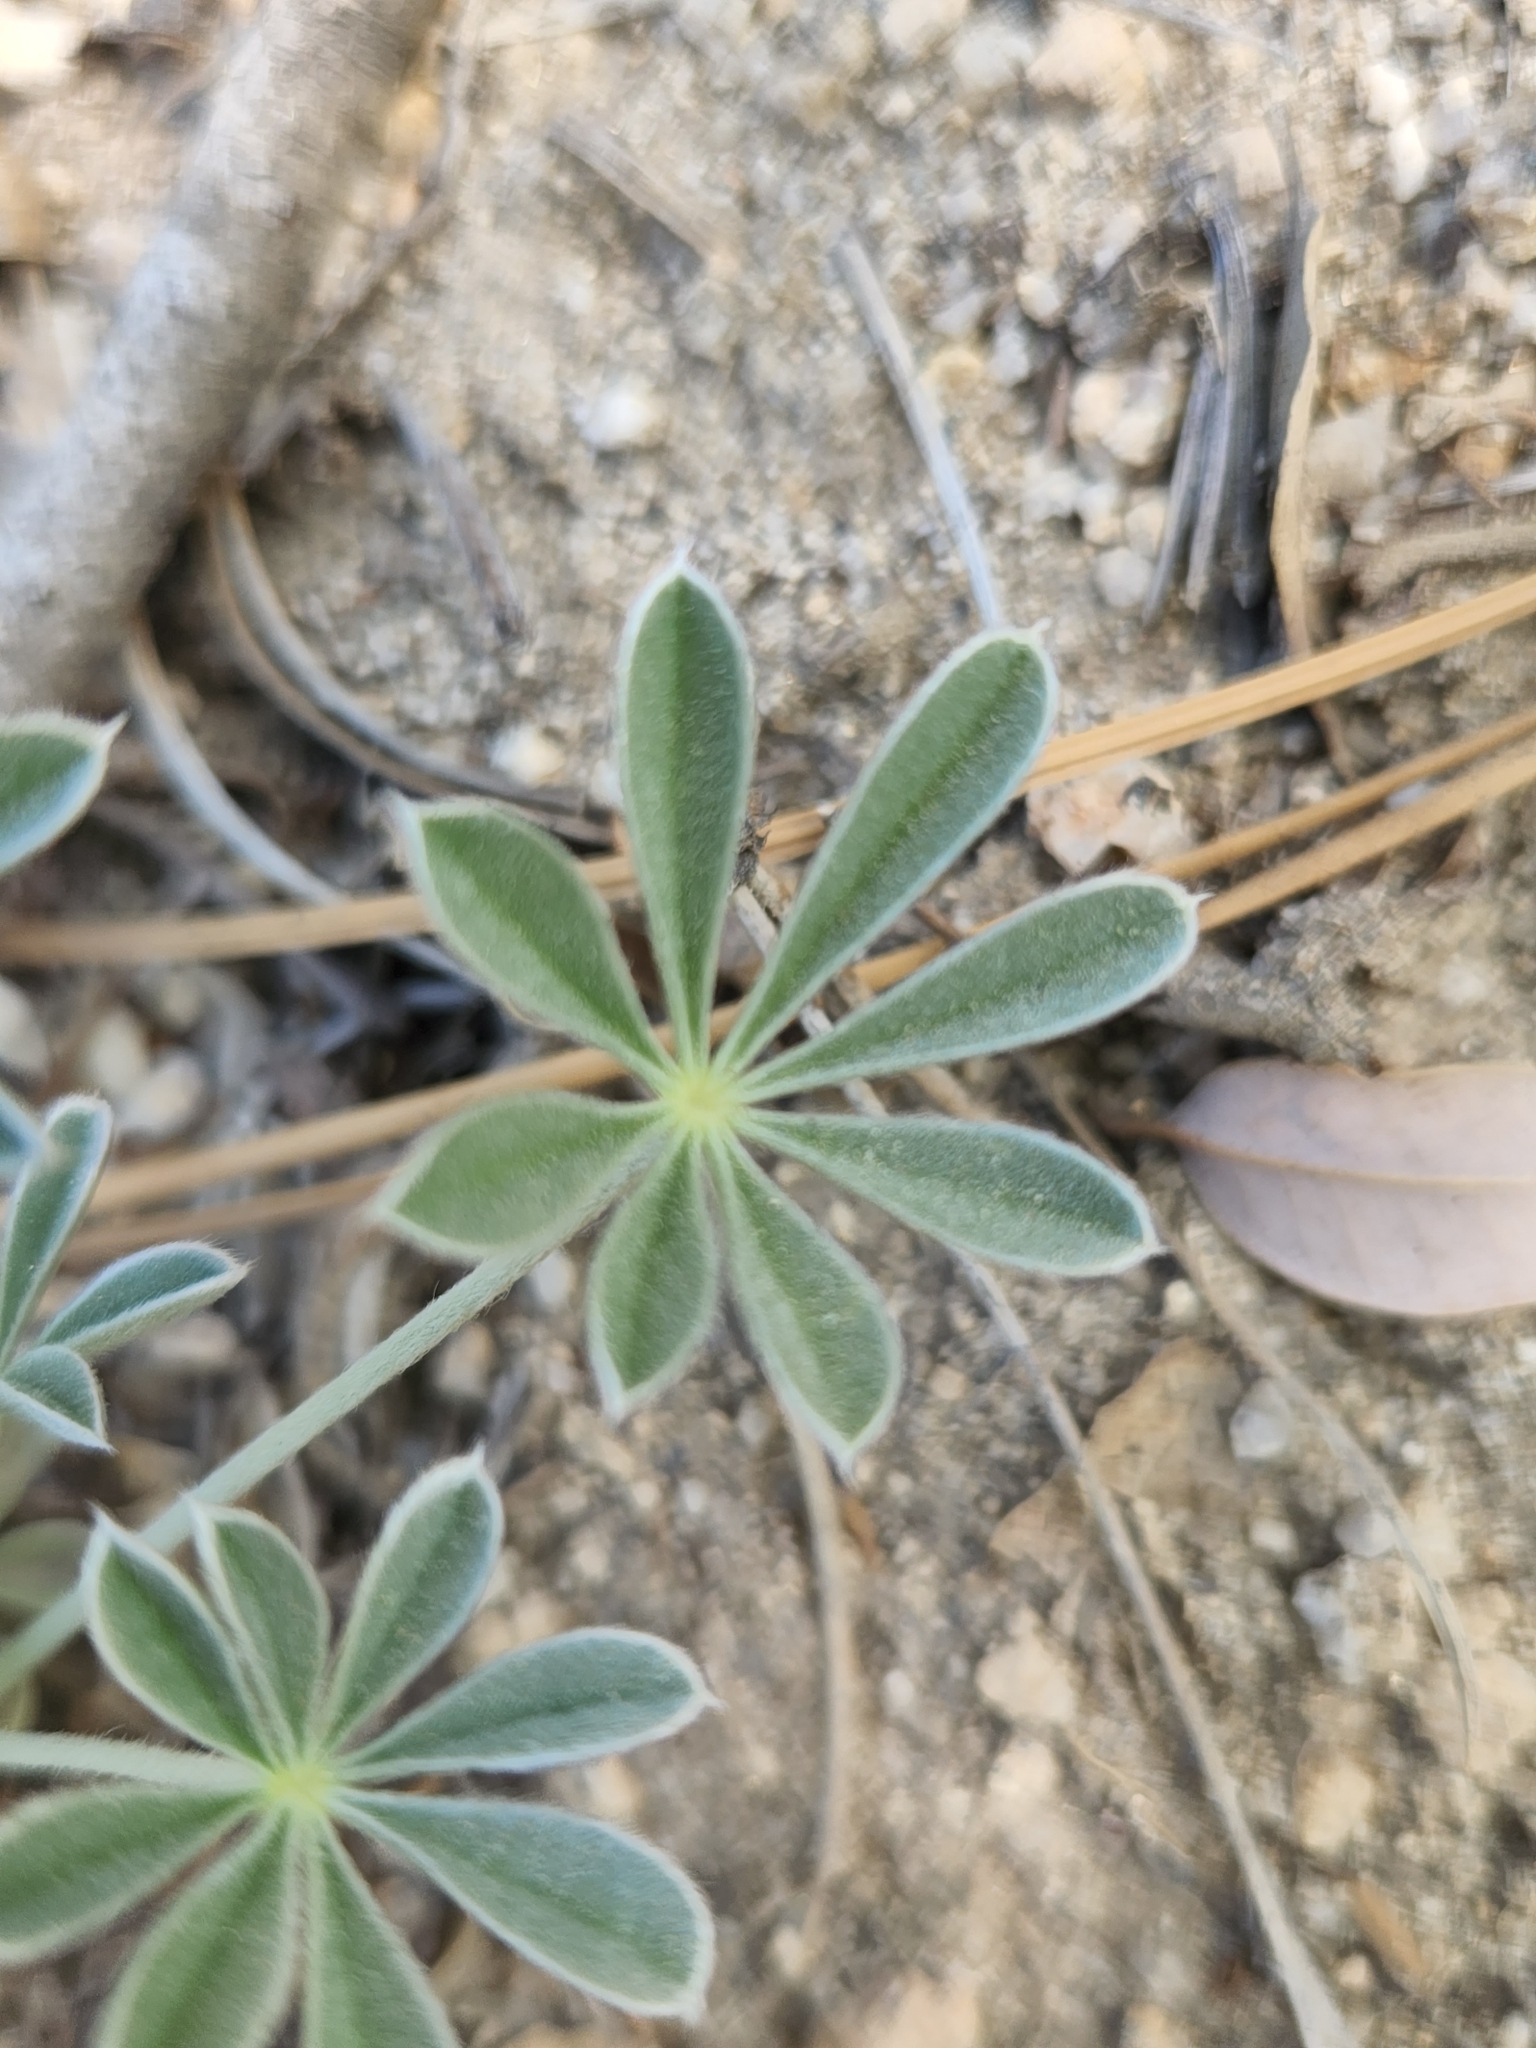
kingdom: Plantae
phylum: Tracheophyta
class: Magnoliopsida
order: Fabales
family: Fabaceae
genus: Lupinus
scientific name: Lupinus excubitus
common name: Grape soda lupine
